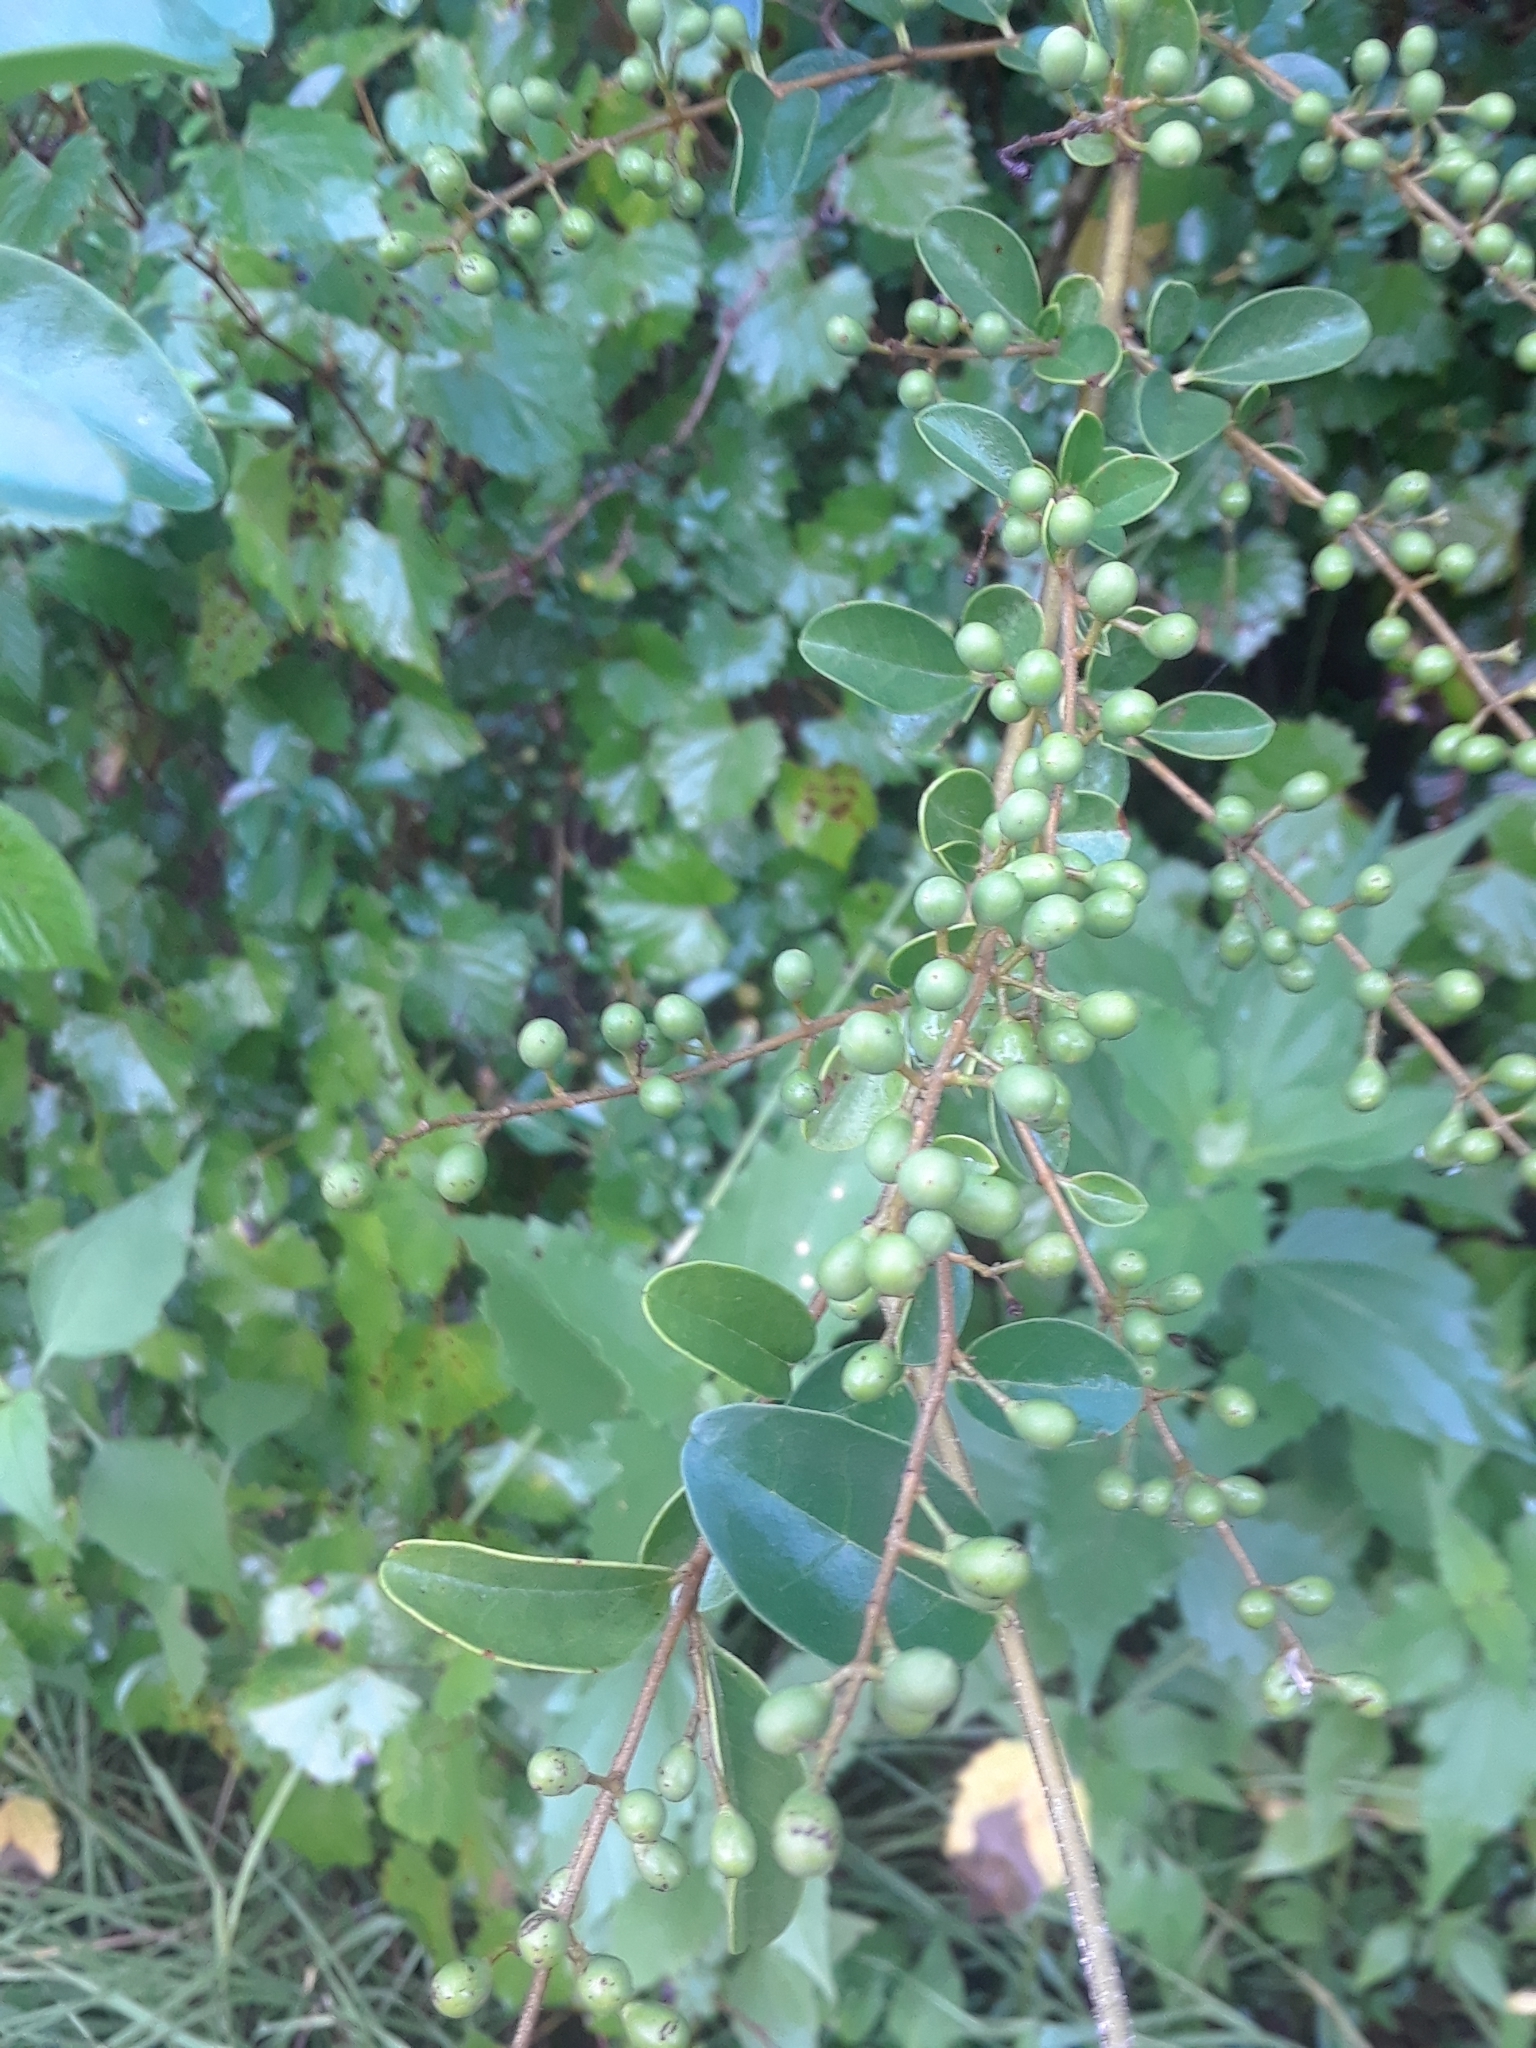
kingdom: Plantae
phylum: Tracheophyta
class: Magnoliopsida
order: Lamiales
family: Oleaceae
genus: Ligustrum
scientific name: Ligustrum sinense
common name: Chinese privet
